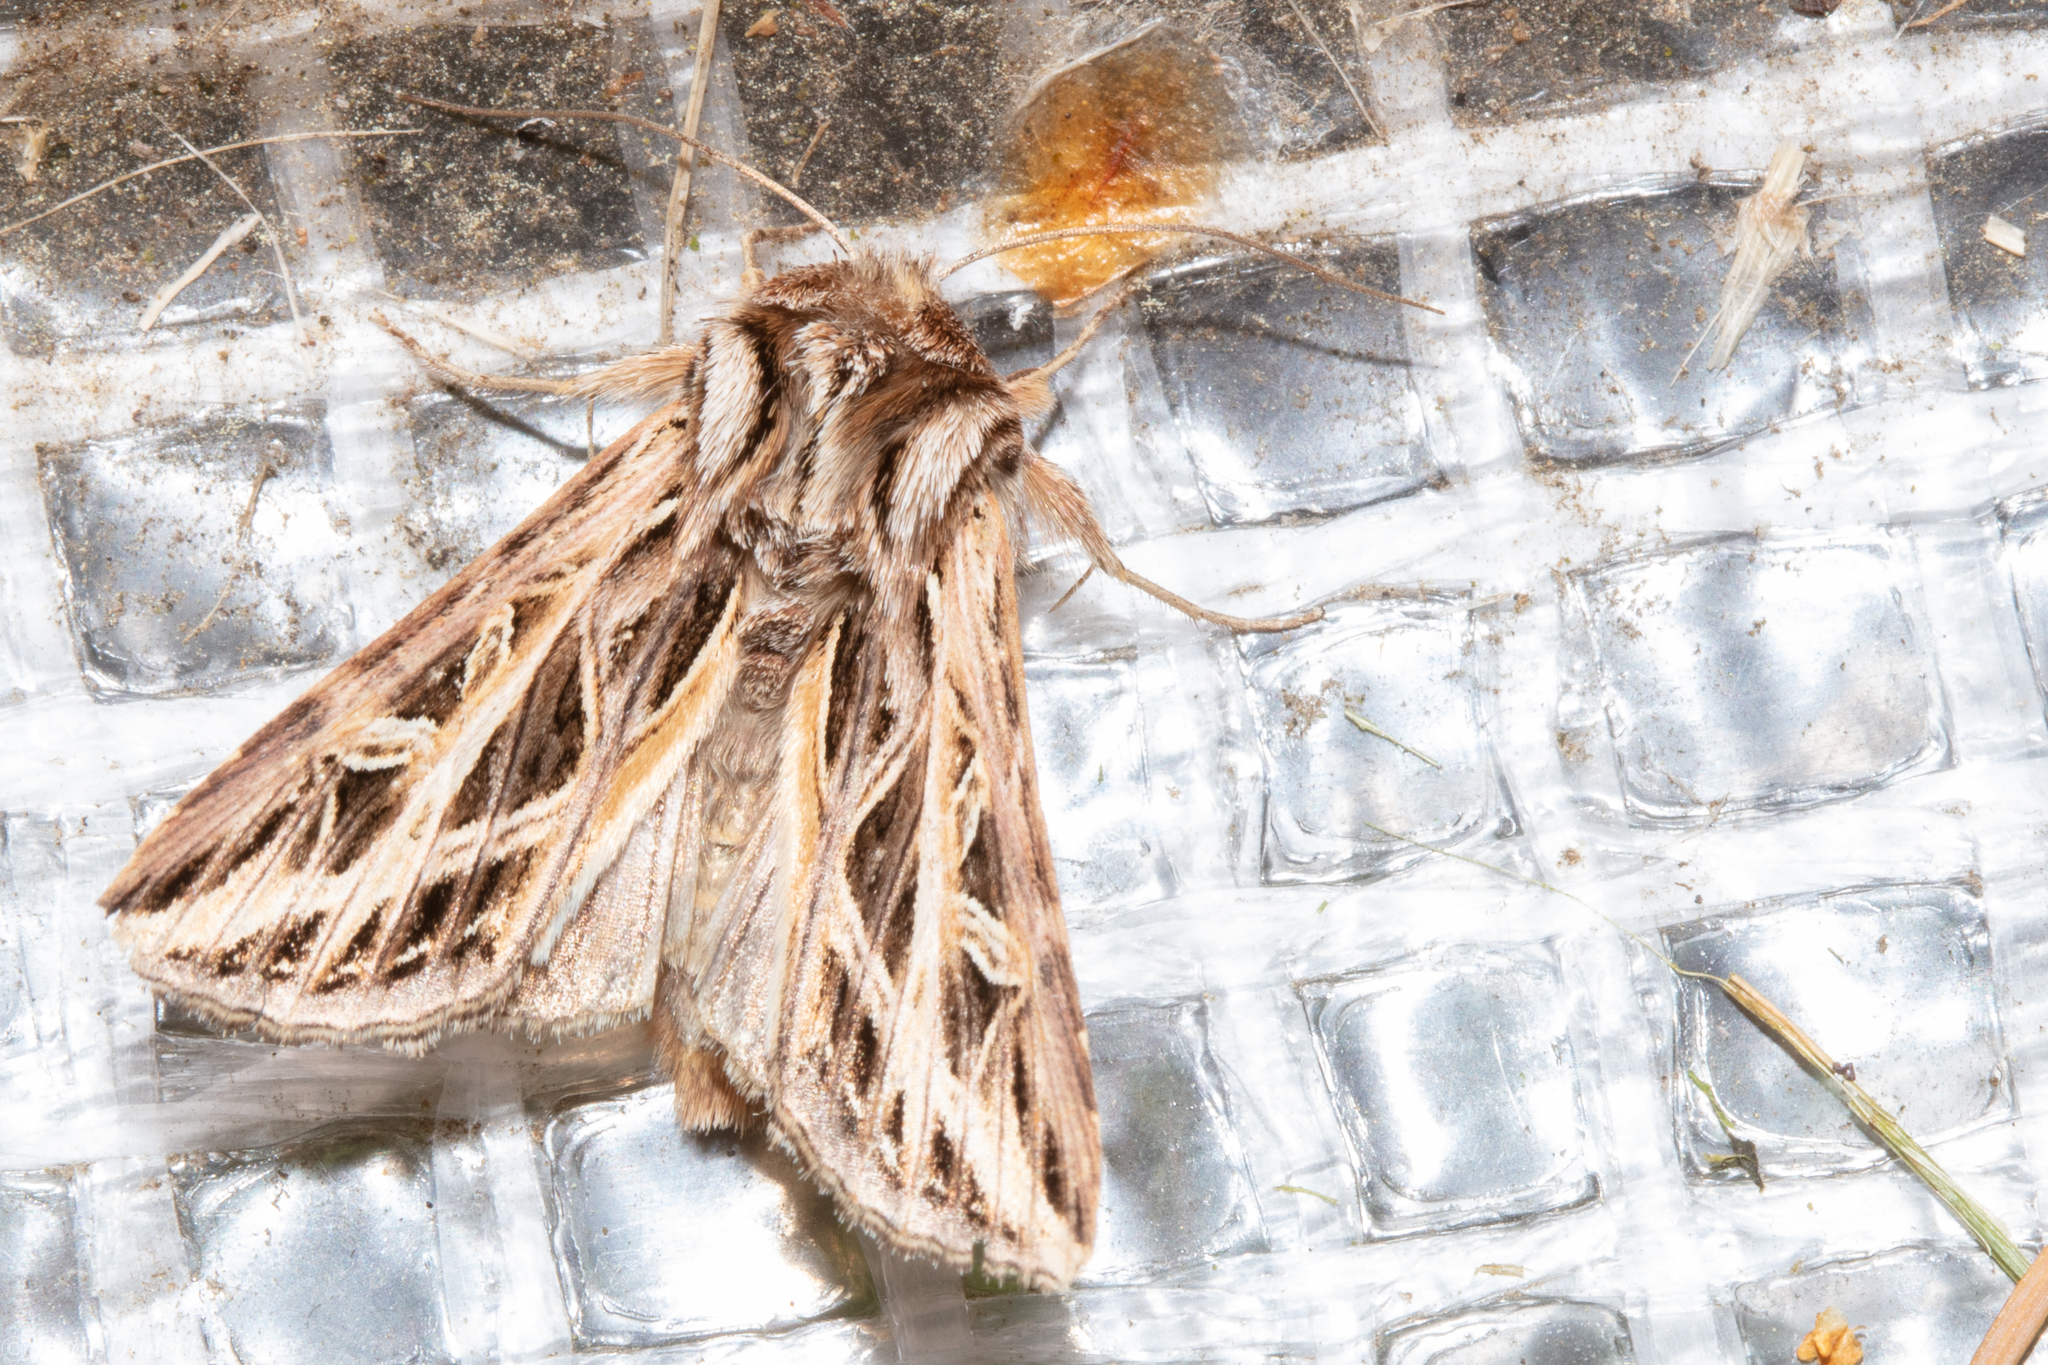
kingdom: Animalia
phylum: Arthropoda
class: Insecta
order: Lepidoptera
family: Noctuidae
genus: Dargida
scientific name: Dargida procinctus
